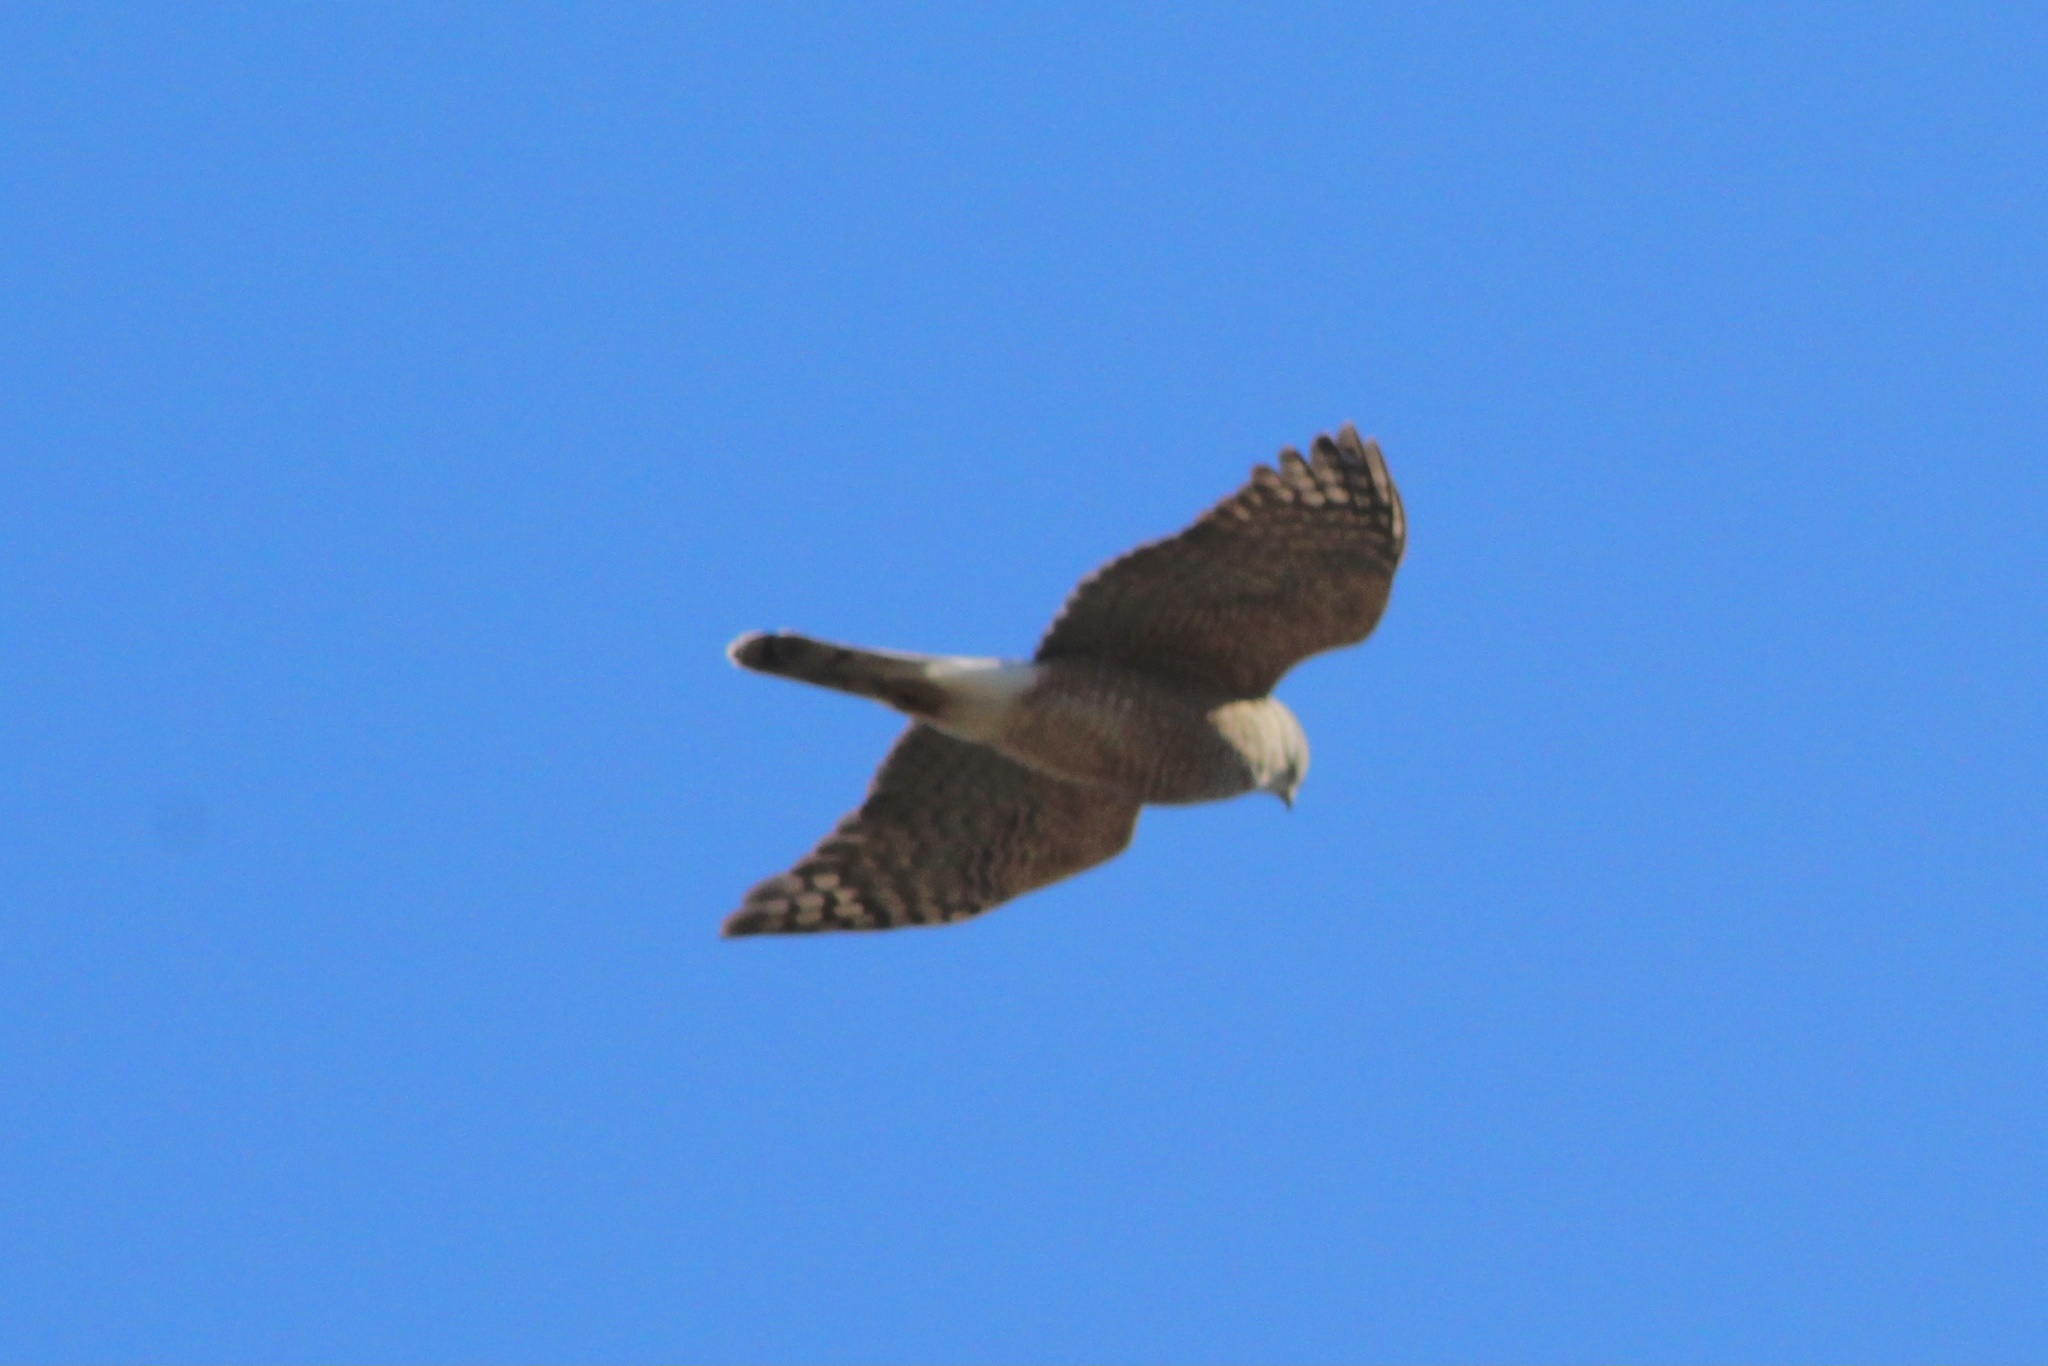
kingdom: Animalia
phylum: Chordata
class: Aves
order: Accipitriformes
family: Accipitridae
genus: Accipiter
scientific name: Accipiter cooperii
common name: Cooper's hawk
